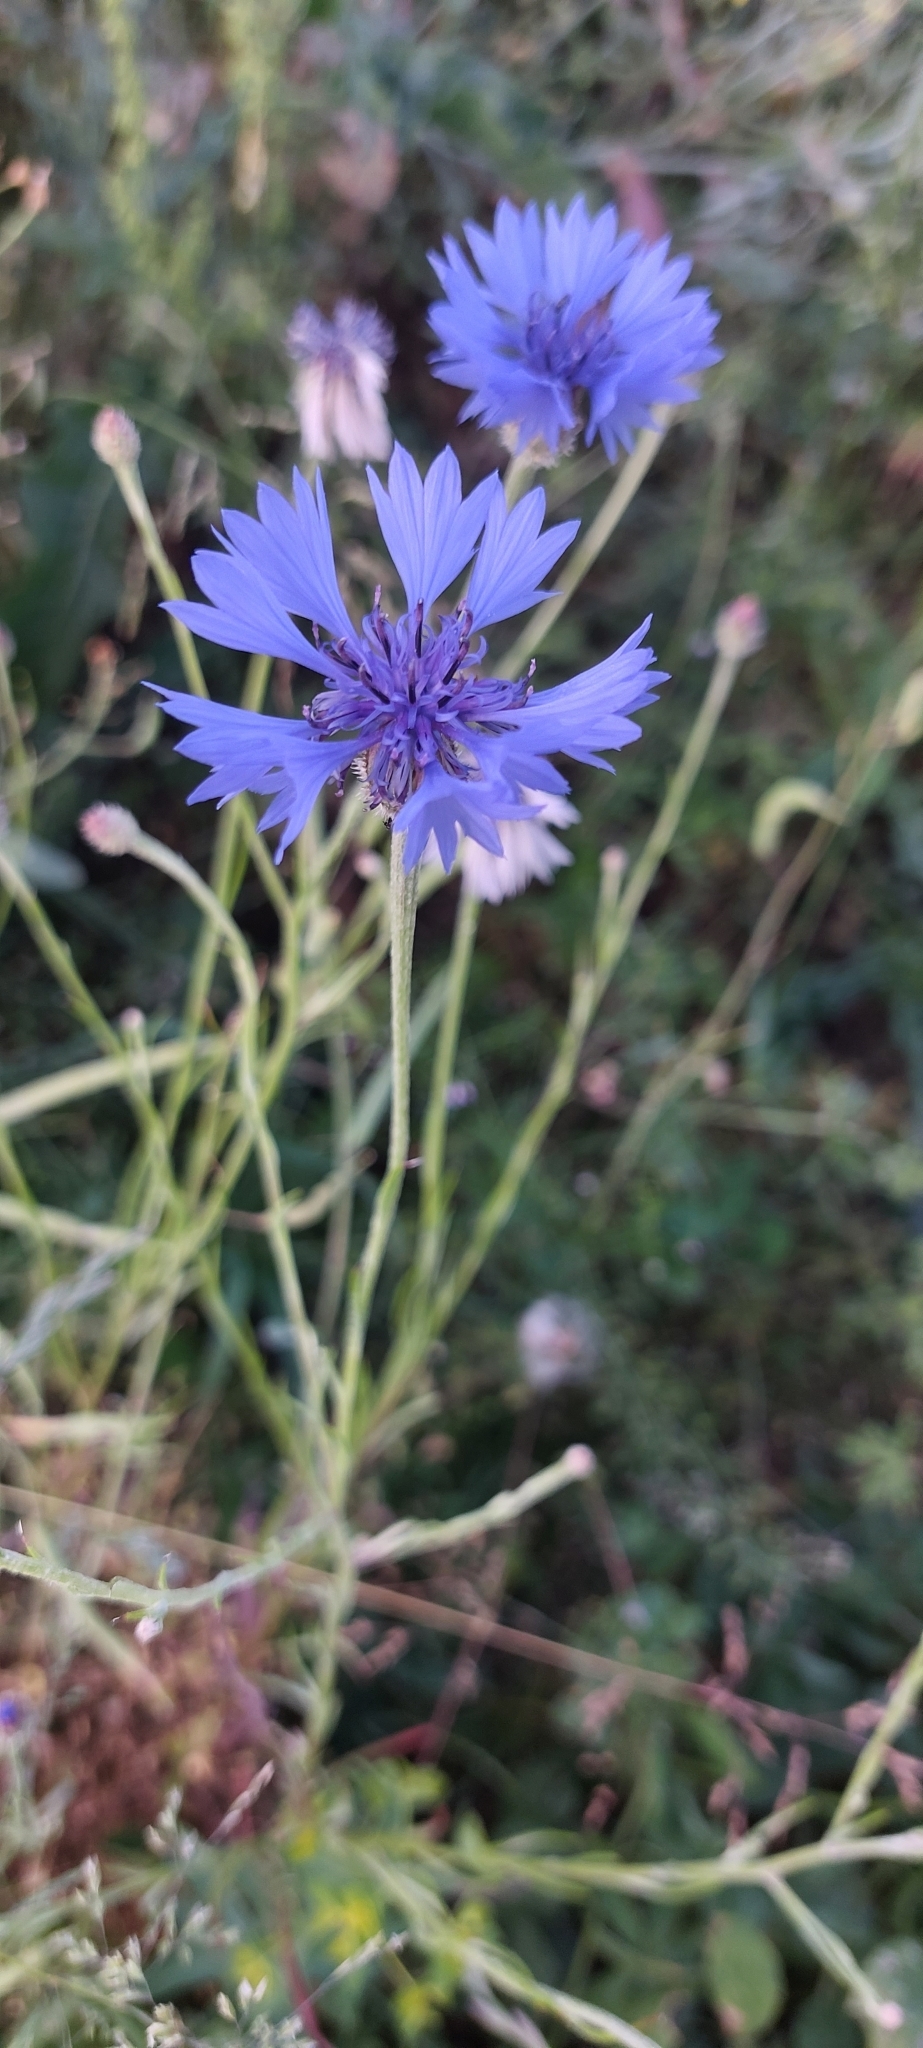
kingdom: Plantae
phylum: Tracheophyta
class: Magnoliopsida
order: Asterales
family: Asteraceae
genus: Centaurea
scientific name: Centaurea cyanus
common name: Cornflower
